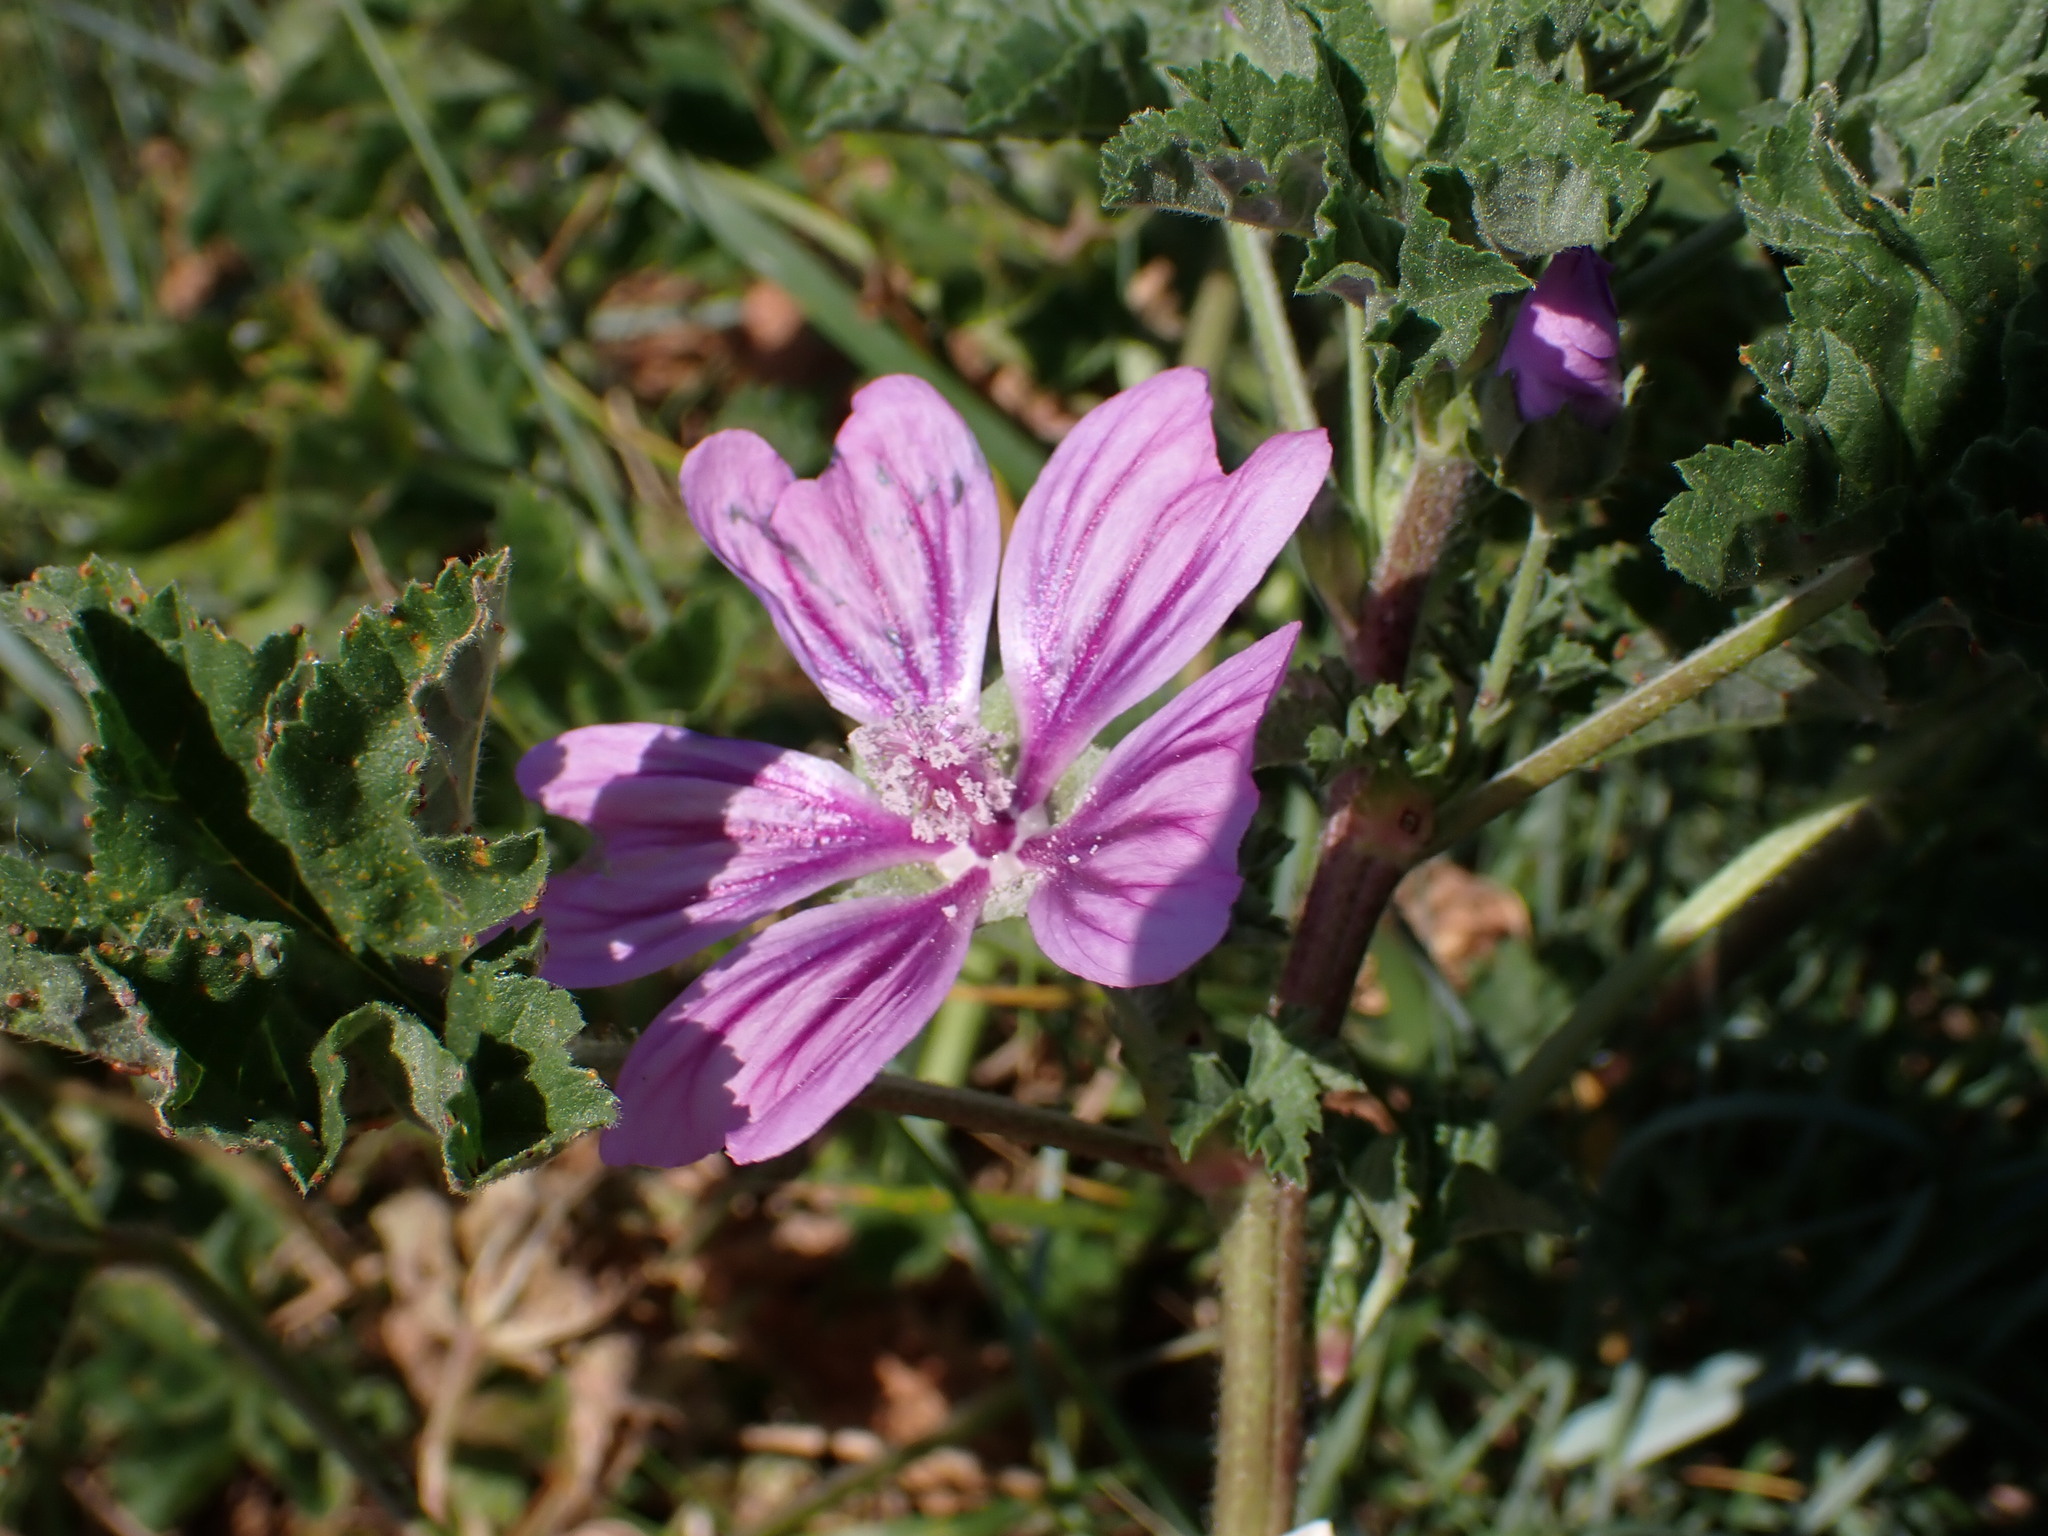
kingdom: Plantae
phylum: Tracheophyta
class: Magnoliopsida
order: Malvales
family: Malvaceae
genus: Malva
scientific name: Malva sylvestris
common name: Common mallow
